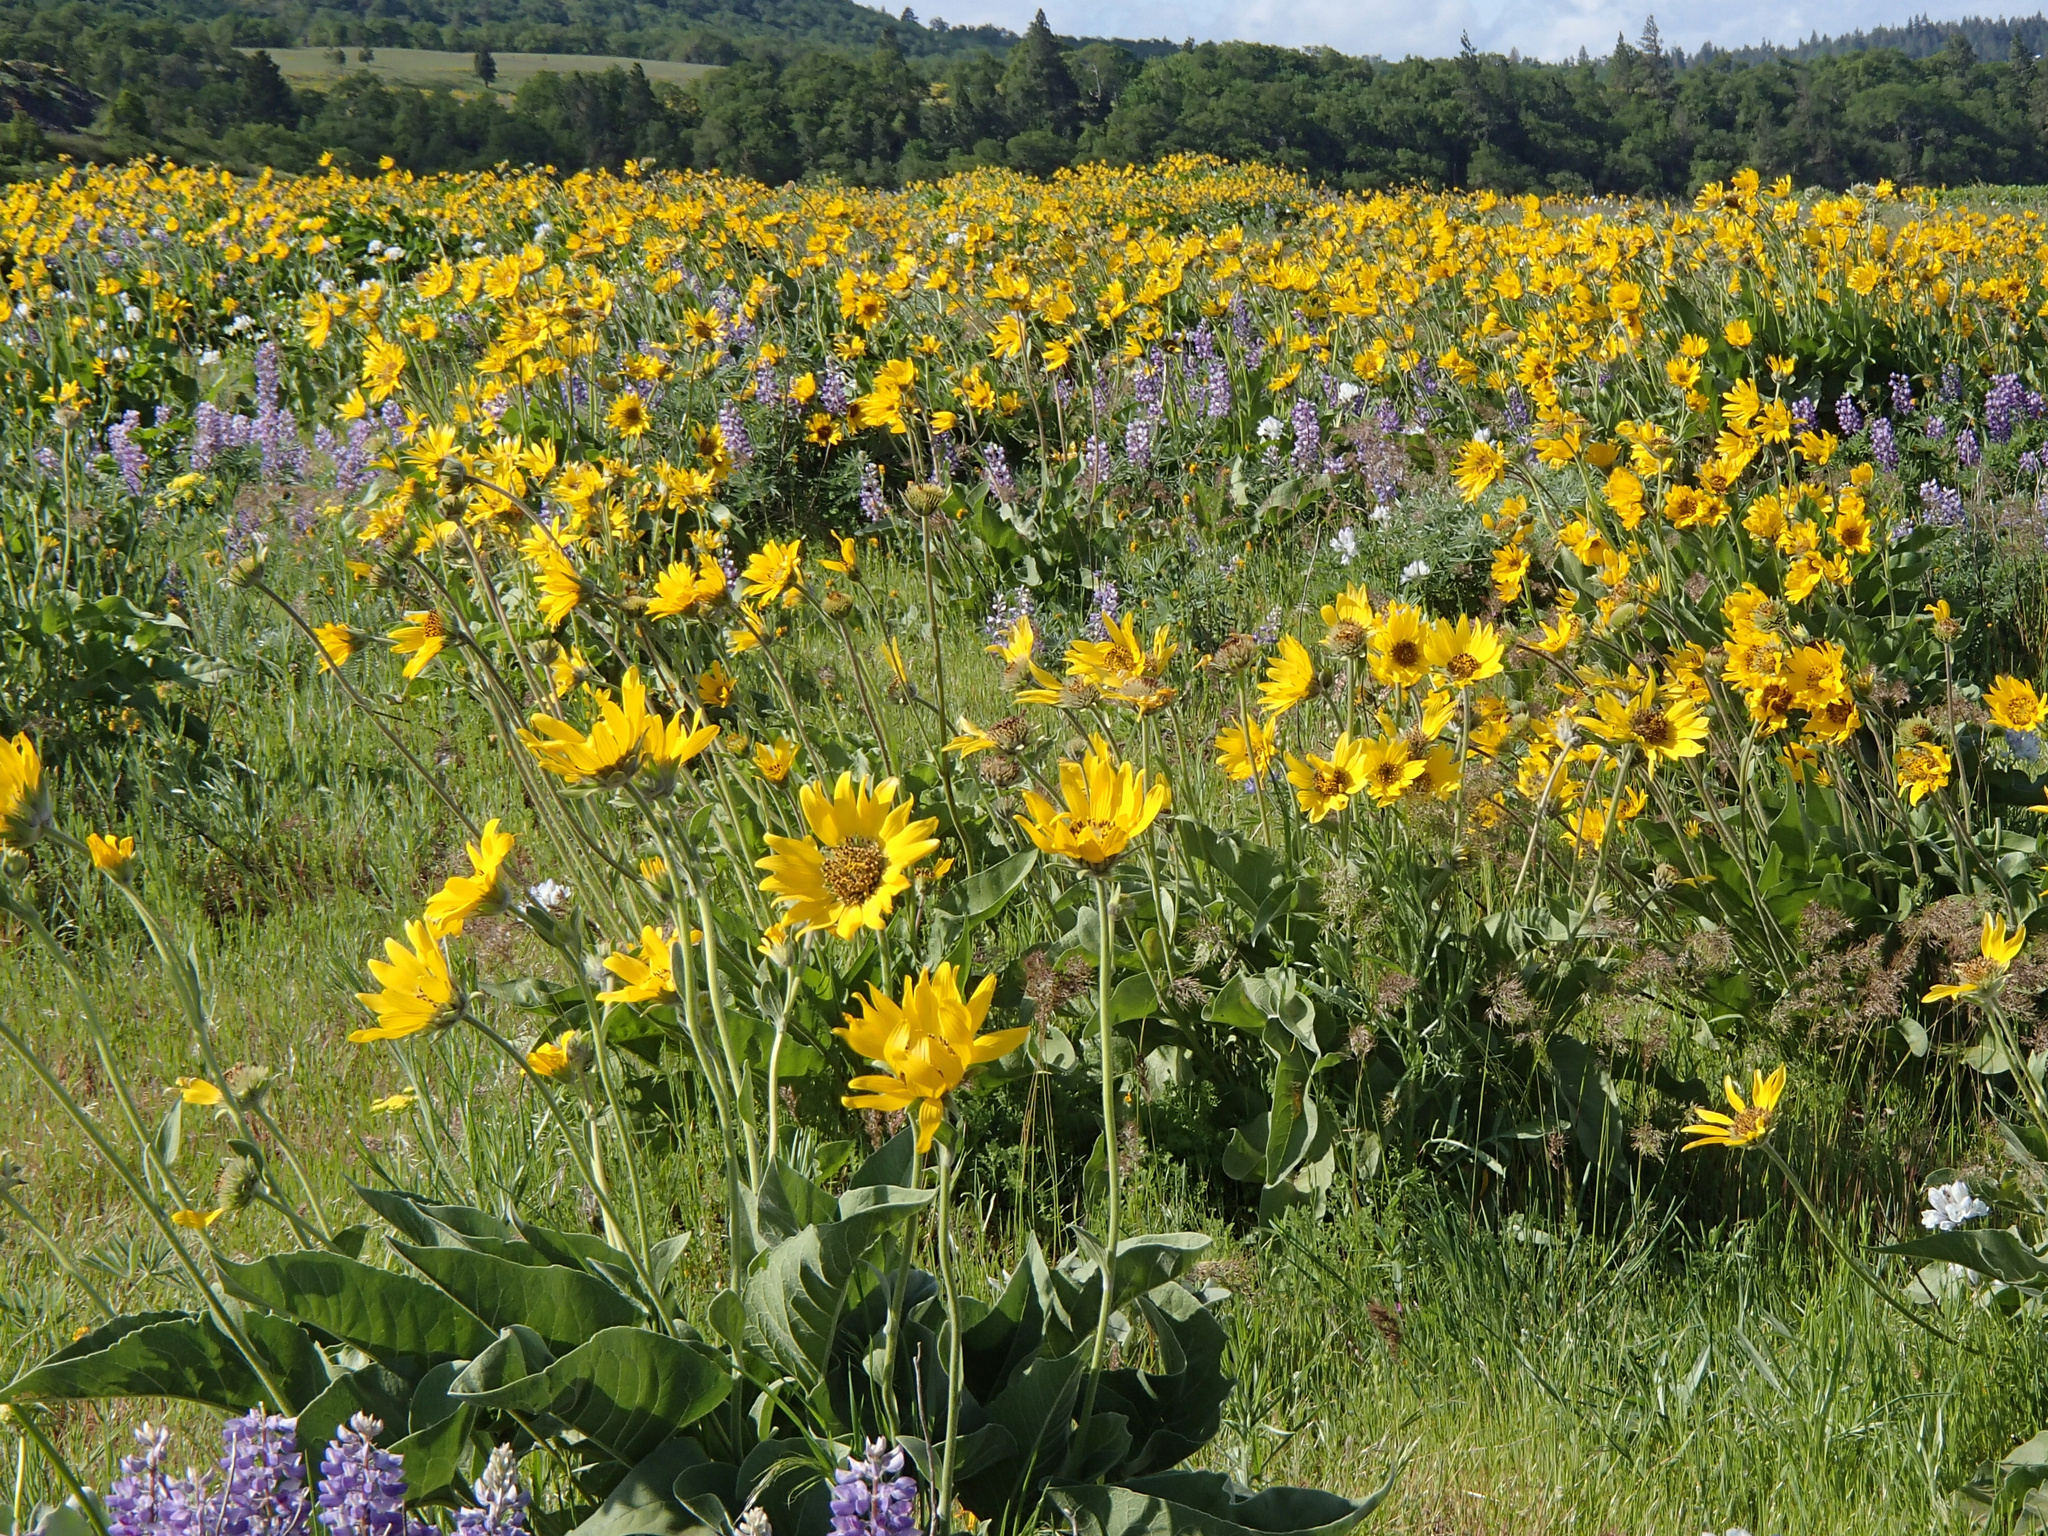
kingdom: Plantae
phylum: Tracheophyta
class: Magnoliopsida
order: Asterales
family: Asteraceae
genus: Wyethia
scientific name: Wyethia sagittata
